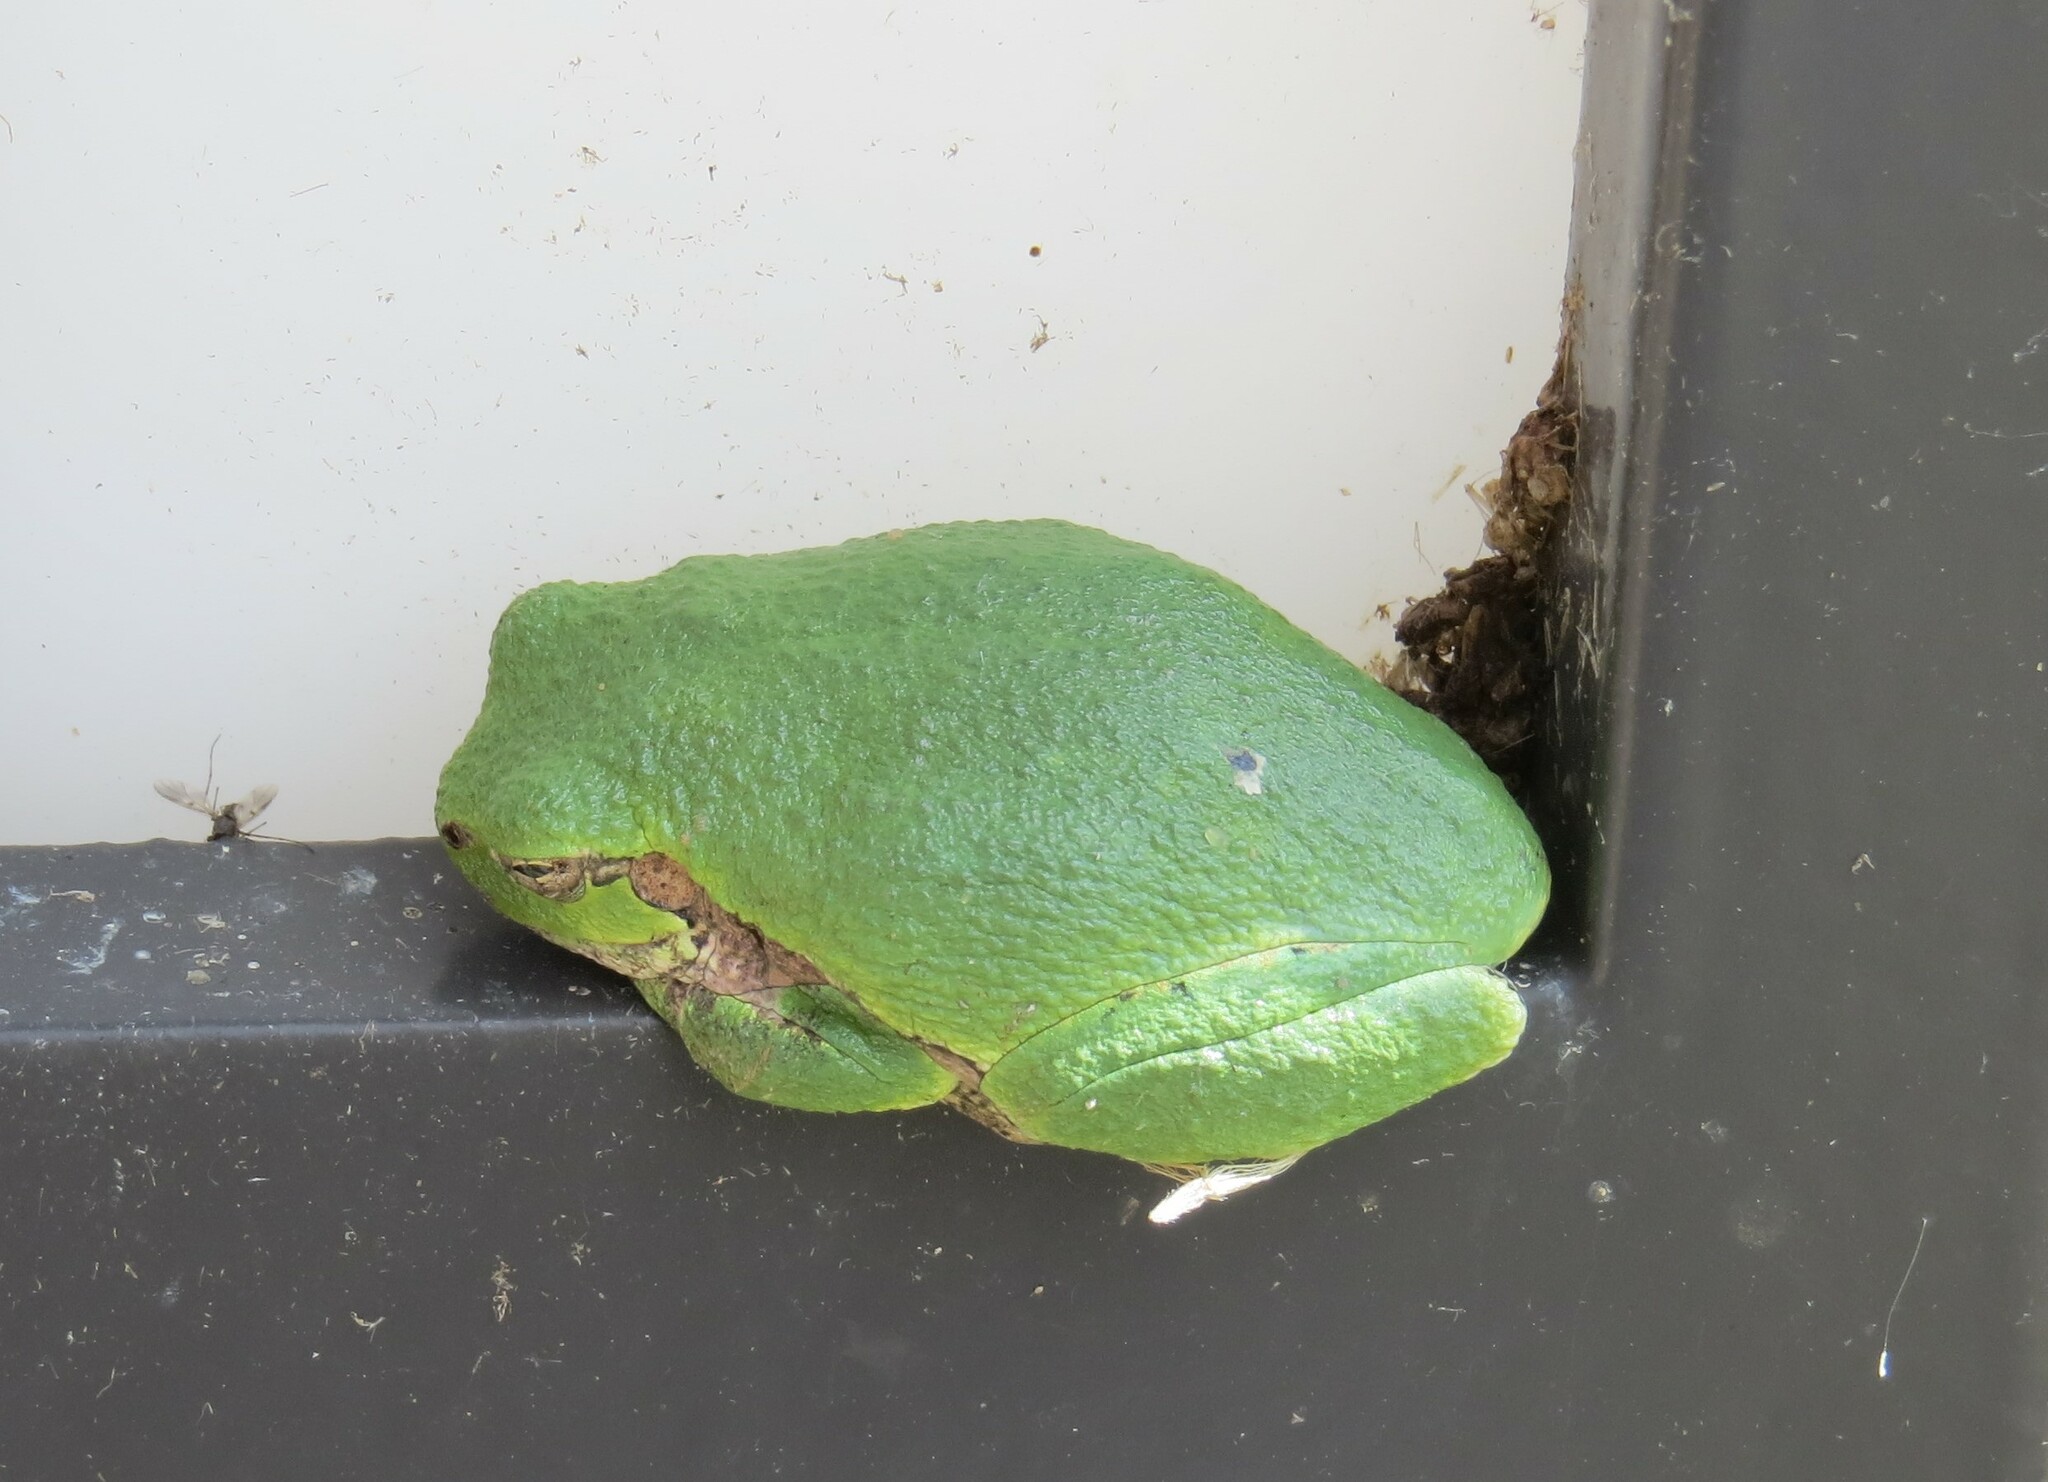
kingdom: Animalia
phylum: Chordata
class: Amphibia
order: Anura
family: Hylidae
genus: Hyla
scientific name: Hyla
